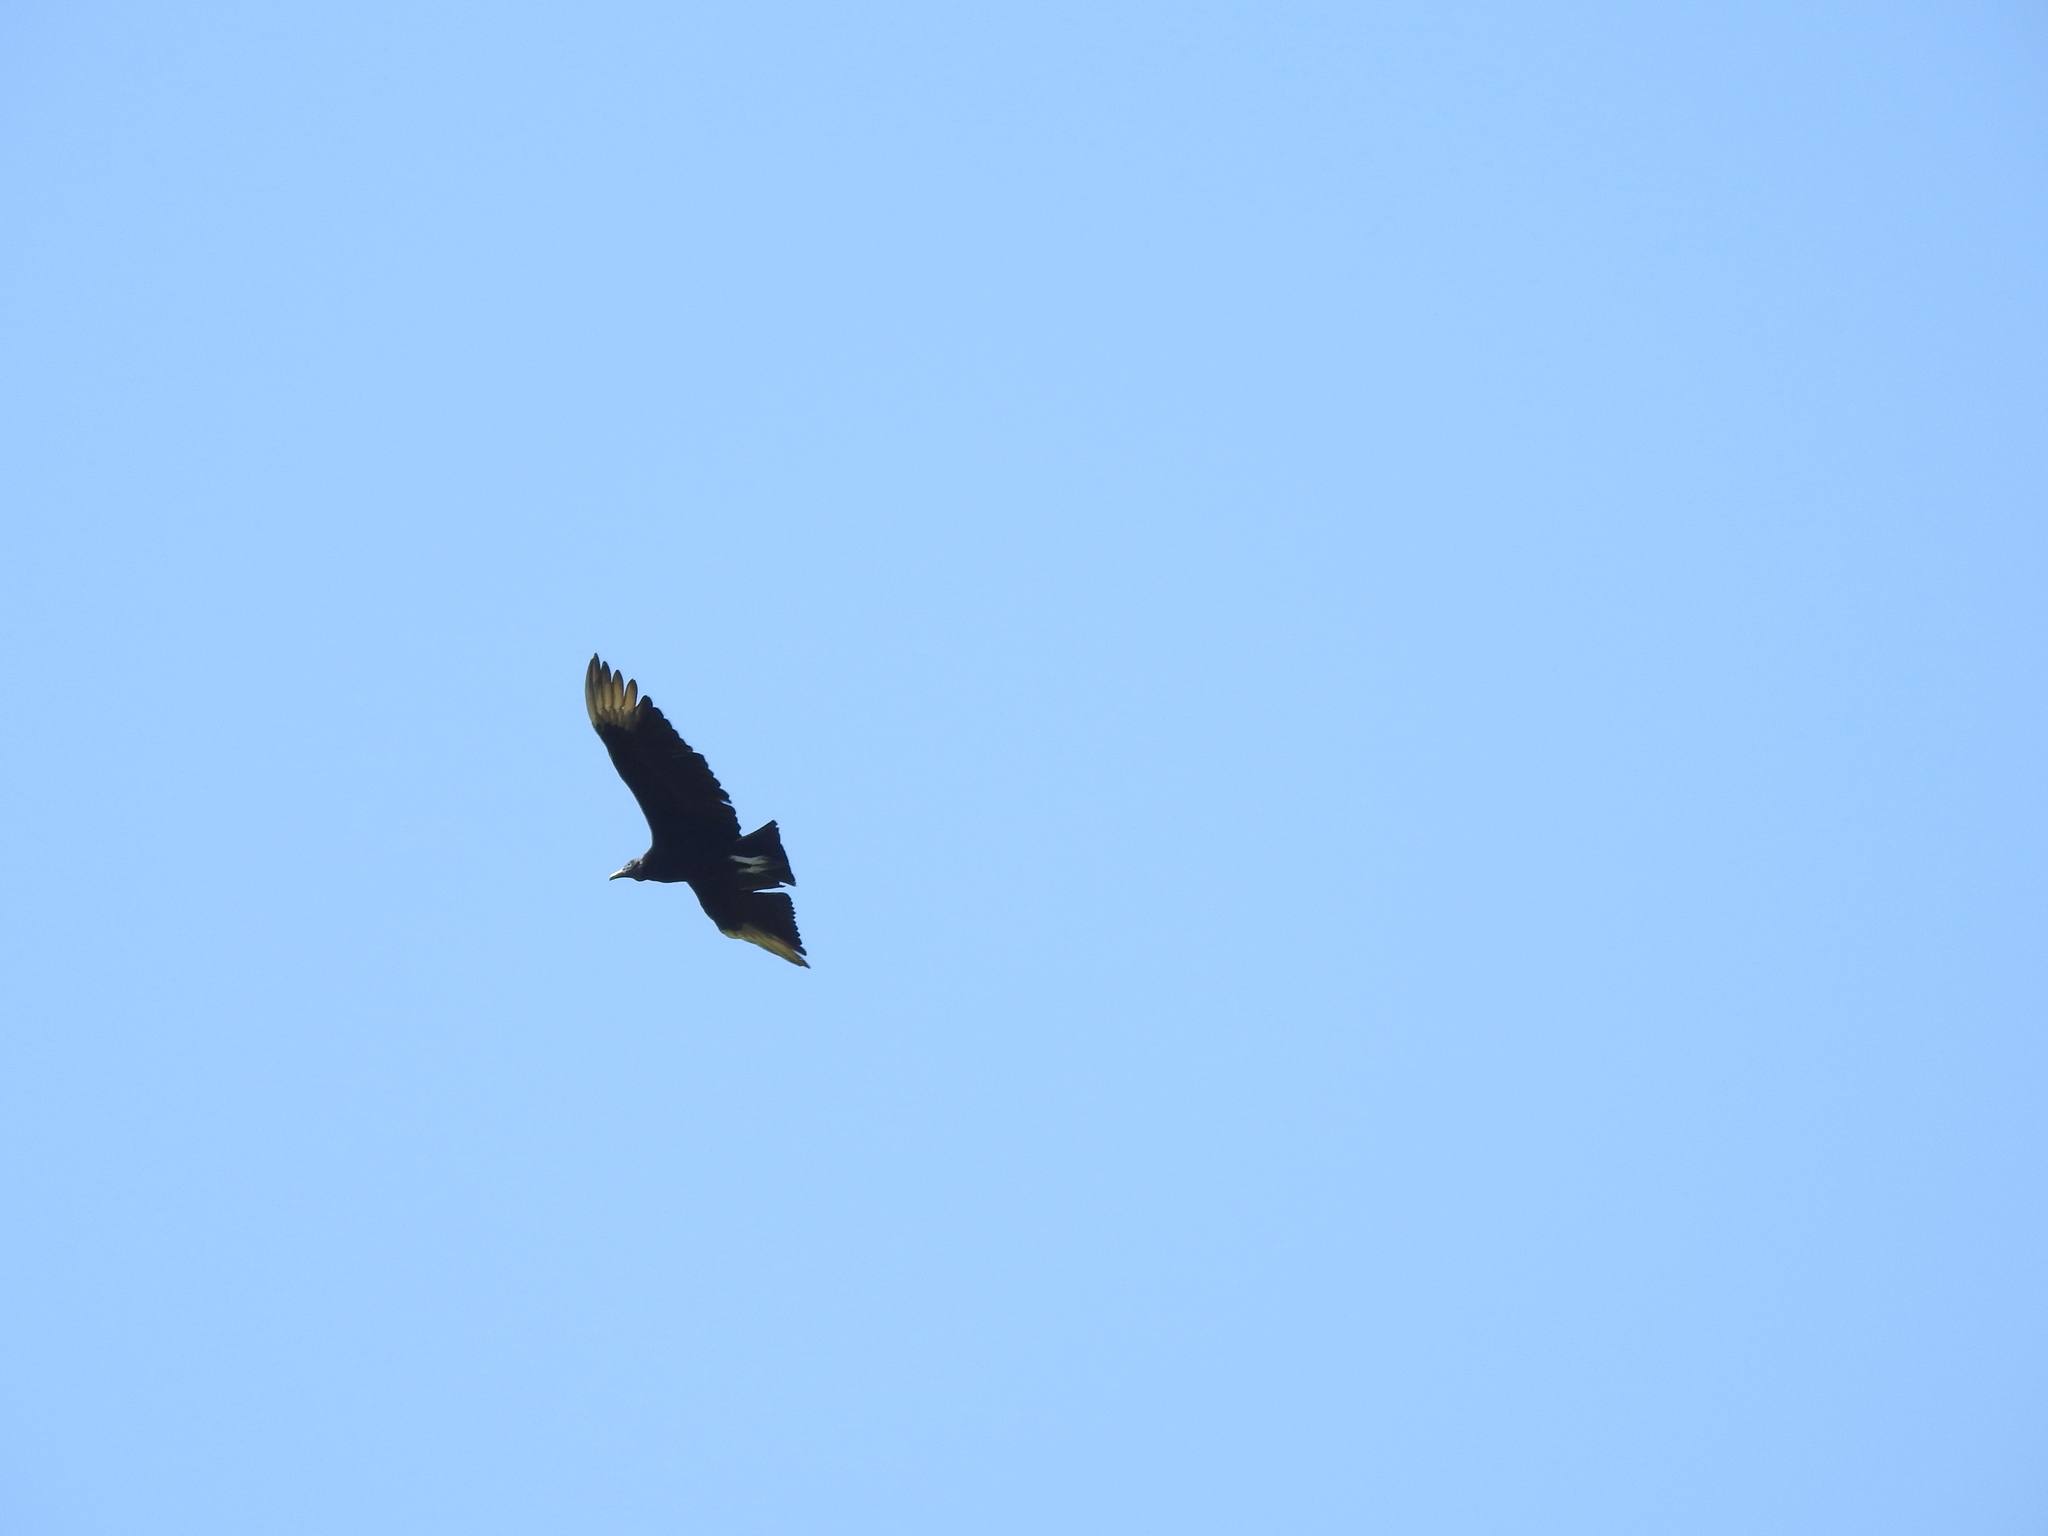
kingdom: Animalia
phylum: Chordata
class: Aves
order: Accipitriformes
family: Cathartidae
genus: Coragyps
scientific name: Coragyps atratus
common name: Black vulture
